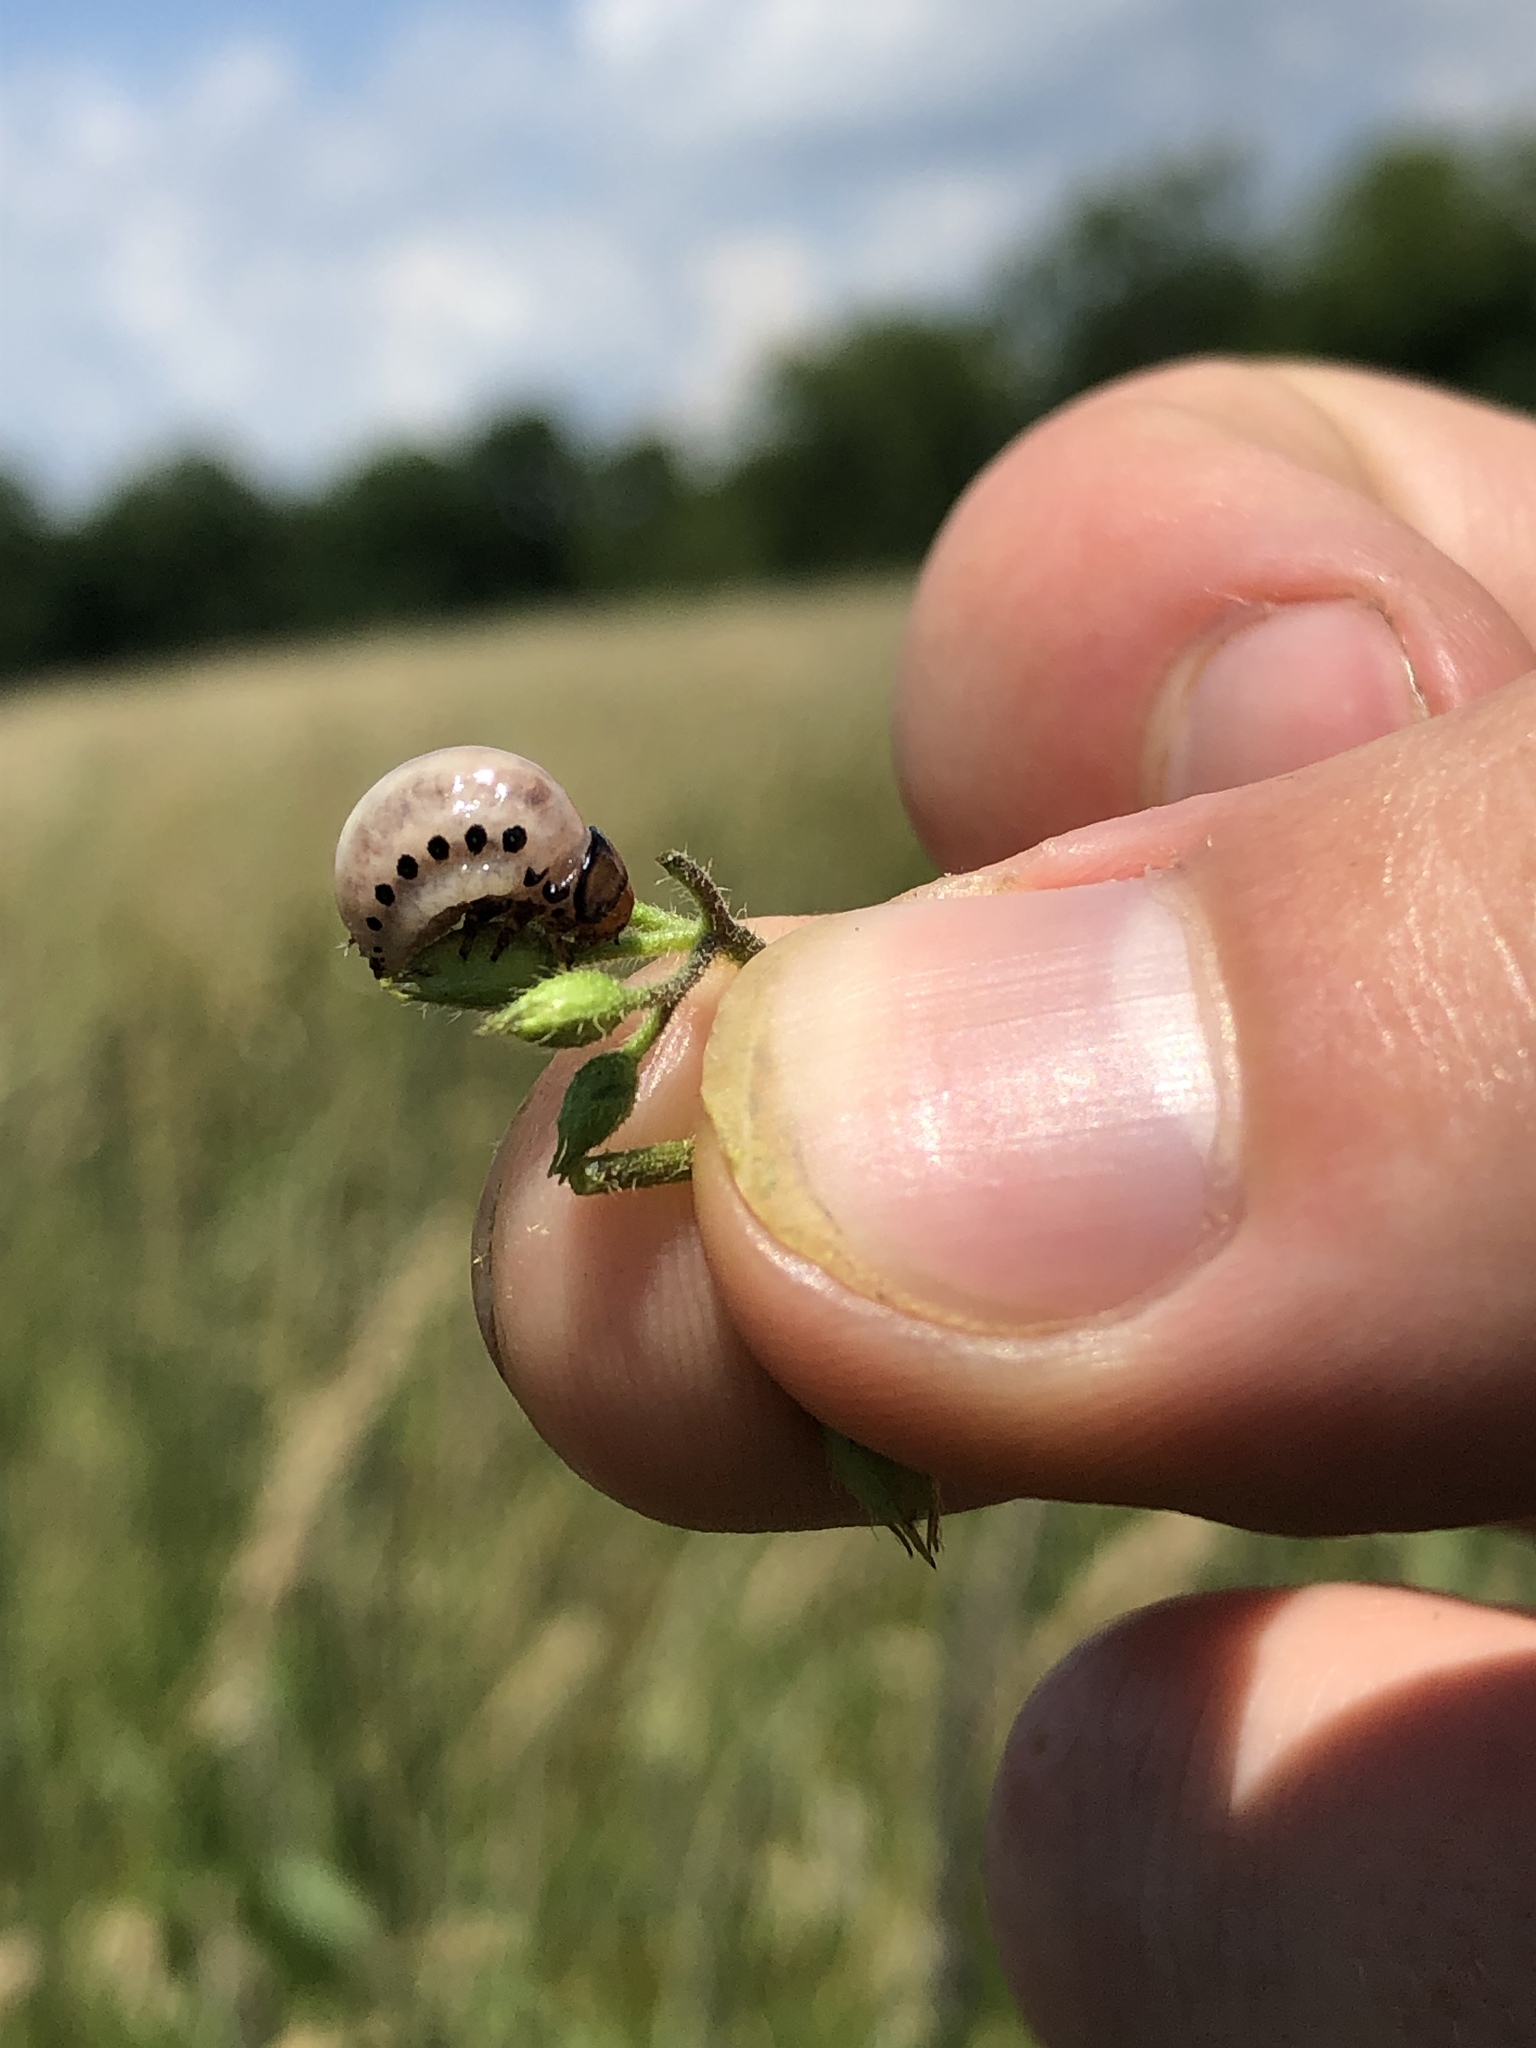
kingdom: Animalia
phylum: Arthropoda
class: Insecta
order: Coleoptera
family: Chrysomelidae
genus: Leptinotarsa
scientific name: Leptinotarsa juncta
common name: False potato beetle
